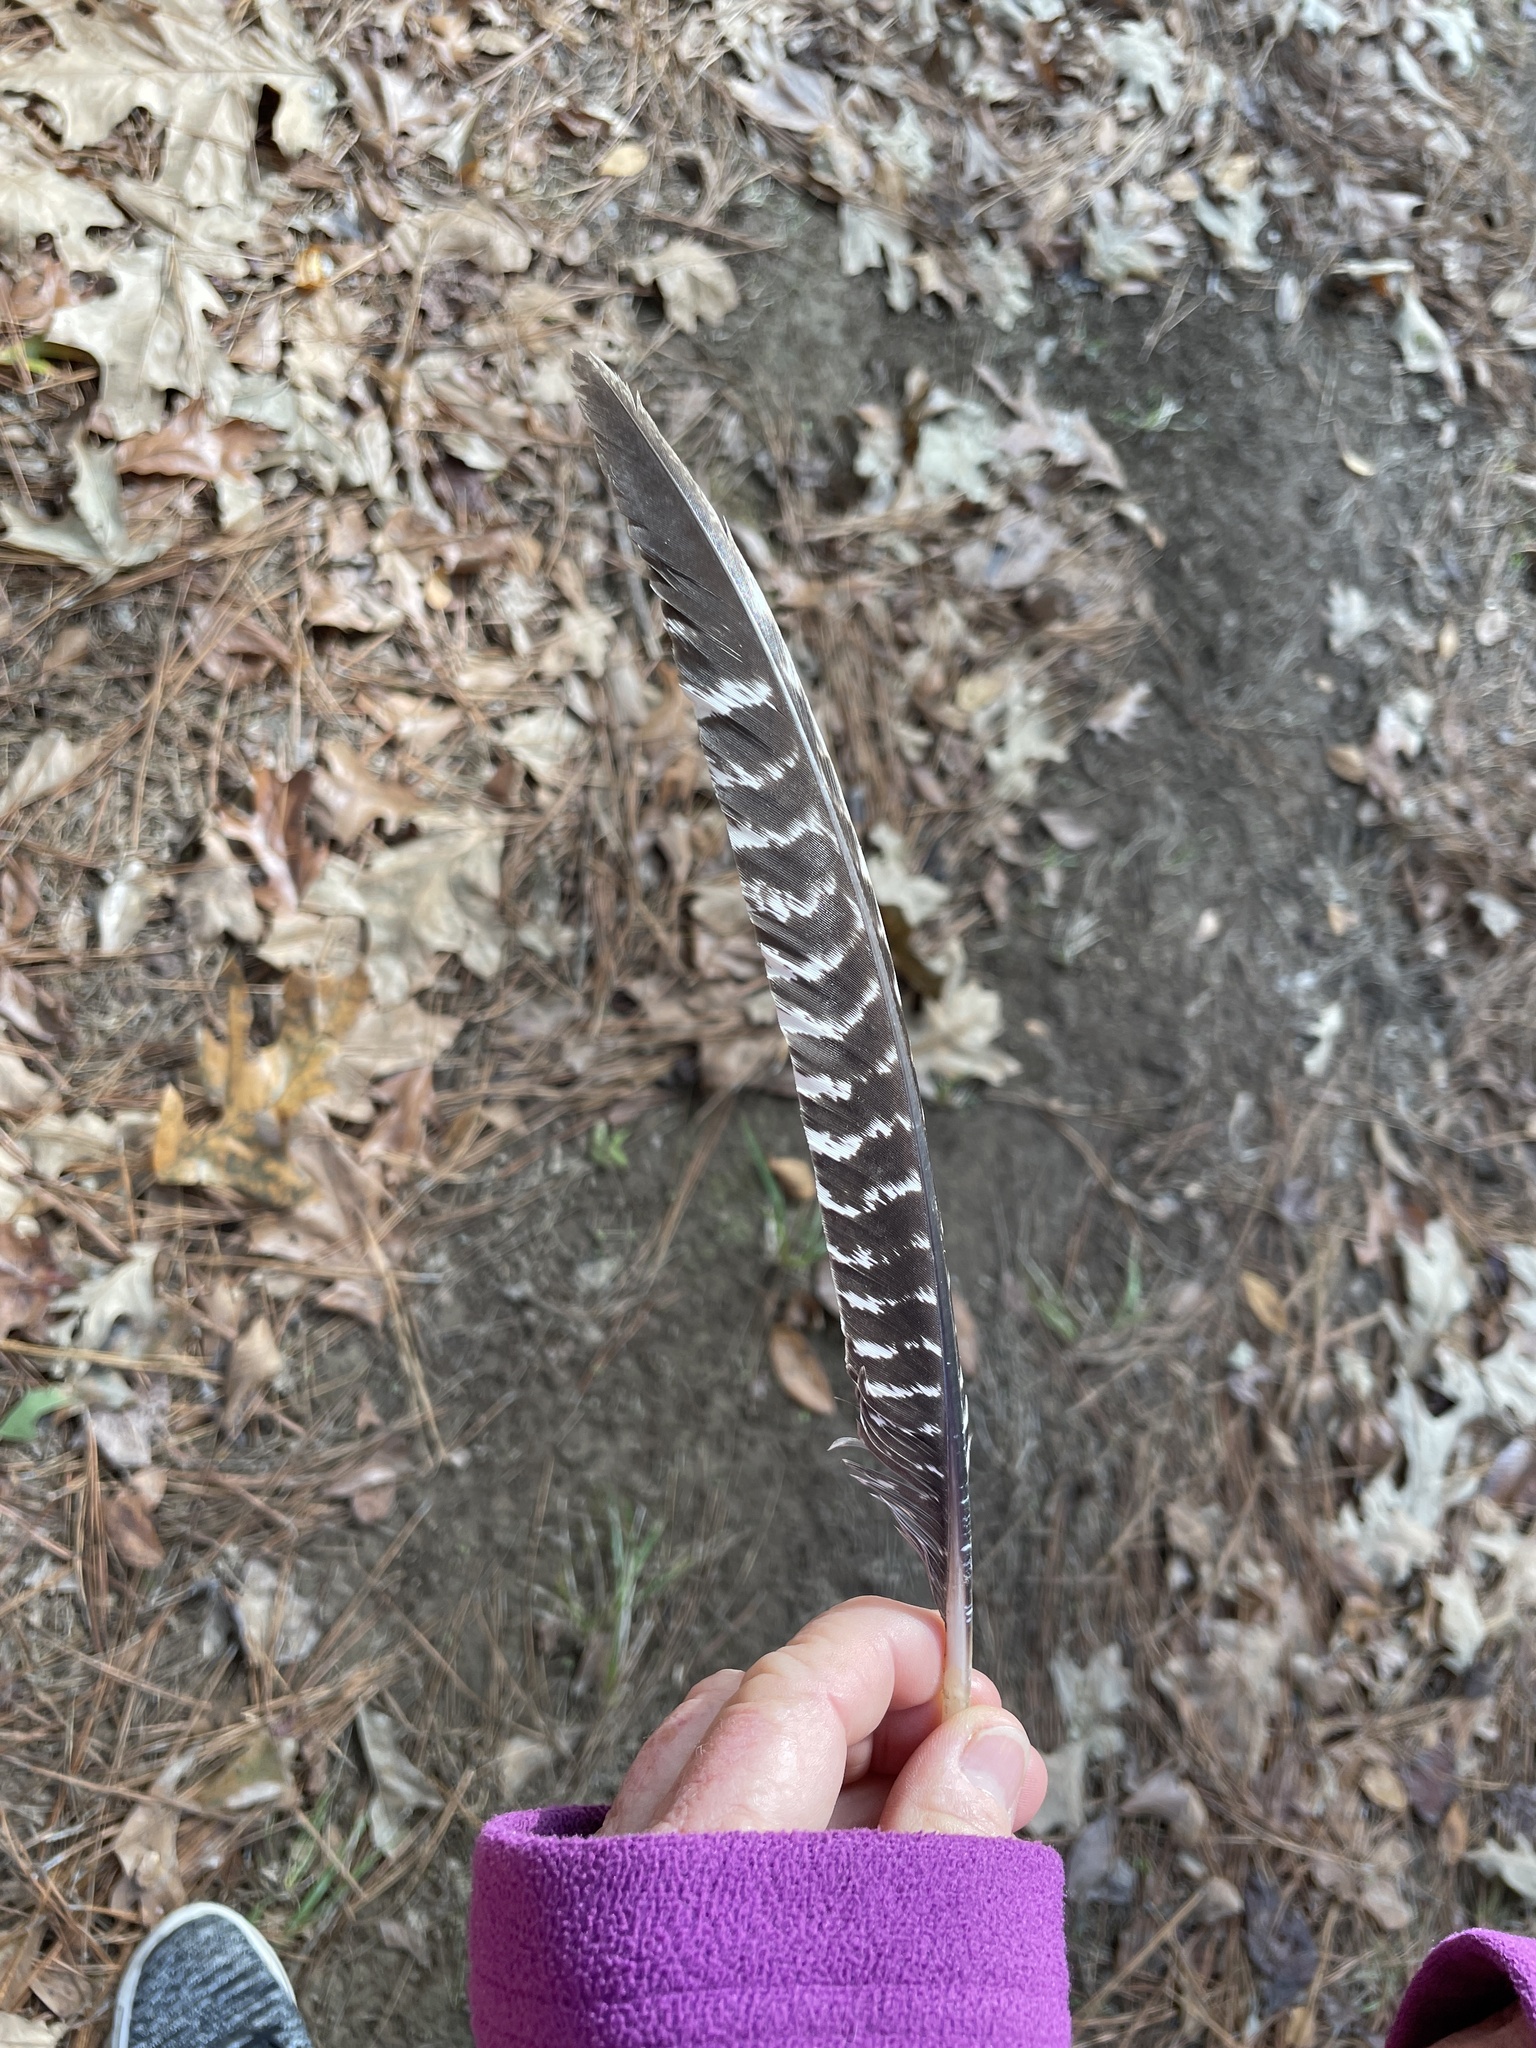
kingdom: Animalia
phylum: Chordata
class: Aves
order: Galliformes
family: Phasianidae
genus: Meleagris
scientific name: Meleagris gallopavo
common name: Wild turkey
